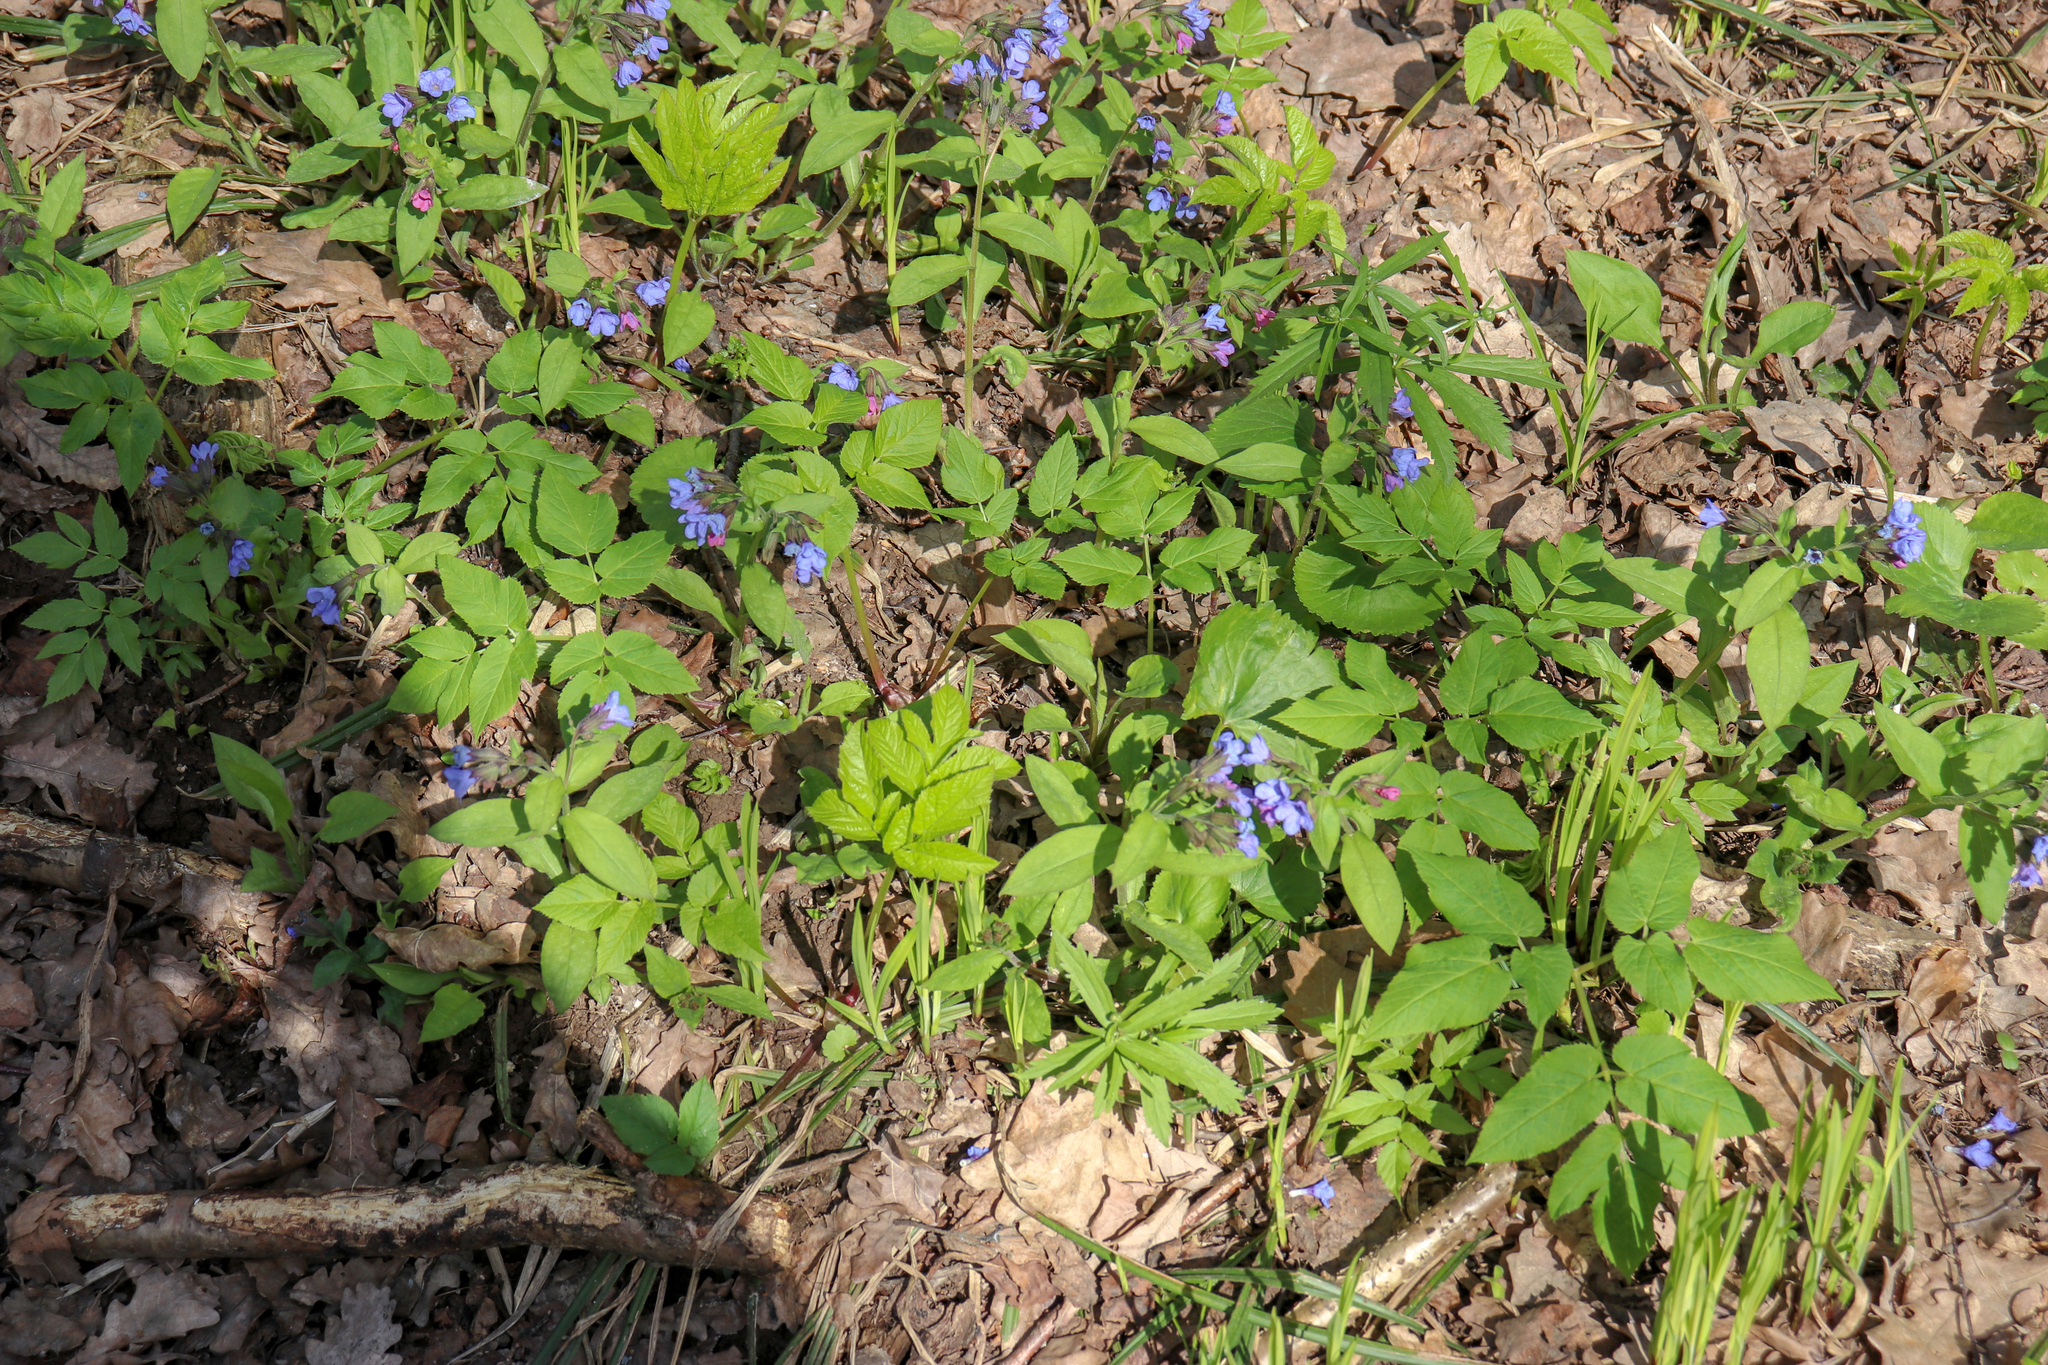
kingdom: Plantae
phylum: Tracheophyta
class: Magnoliopsida
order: Boraginales
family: Boraginaceae
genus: Pulmonaria
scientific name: Pulmonaria obscura
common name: Suffolk lungwort
